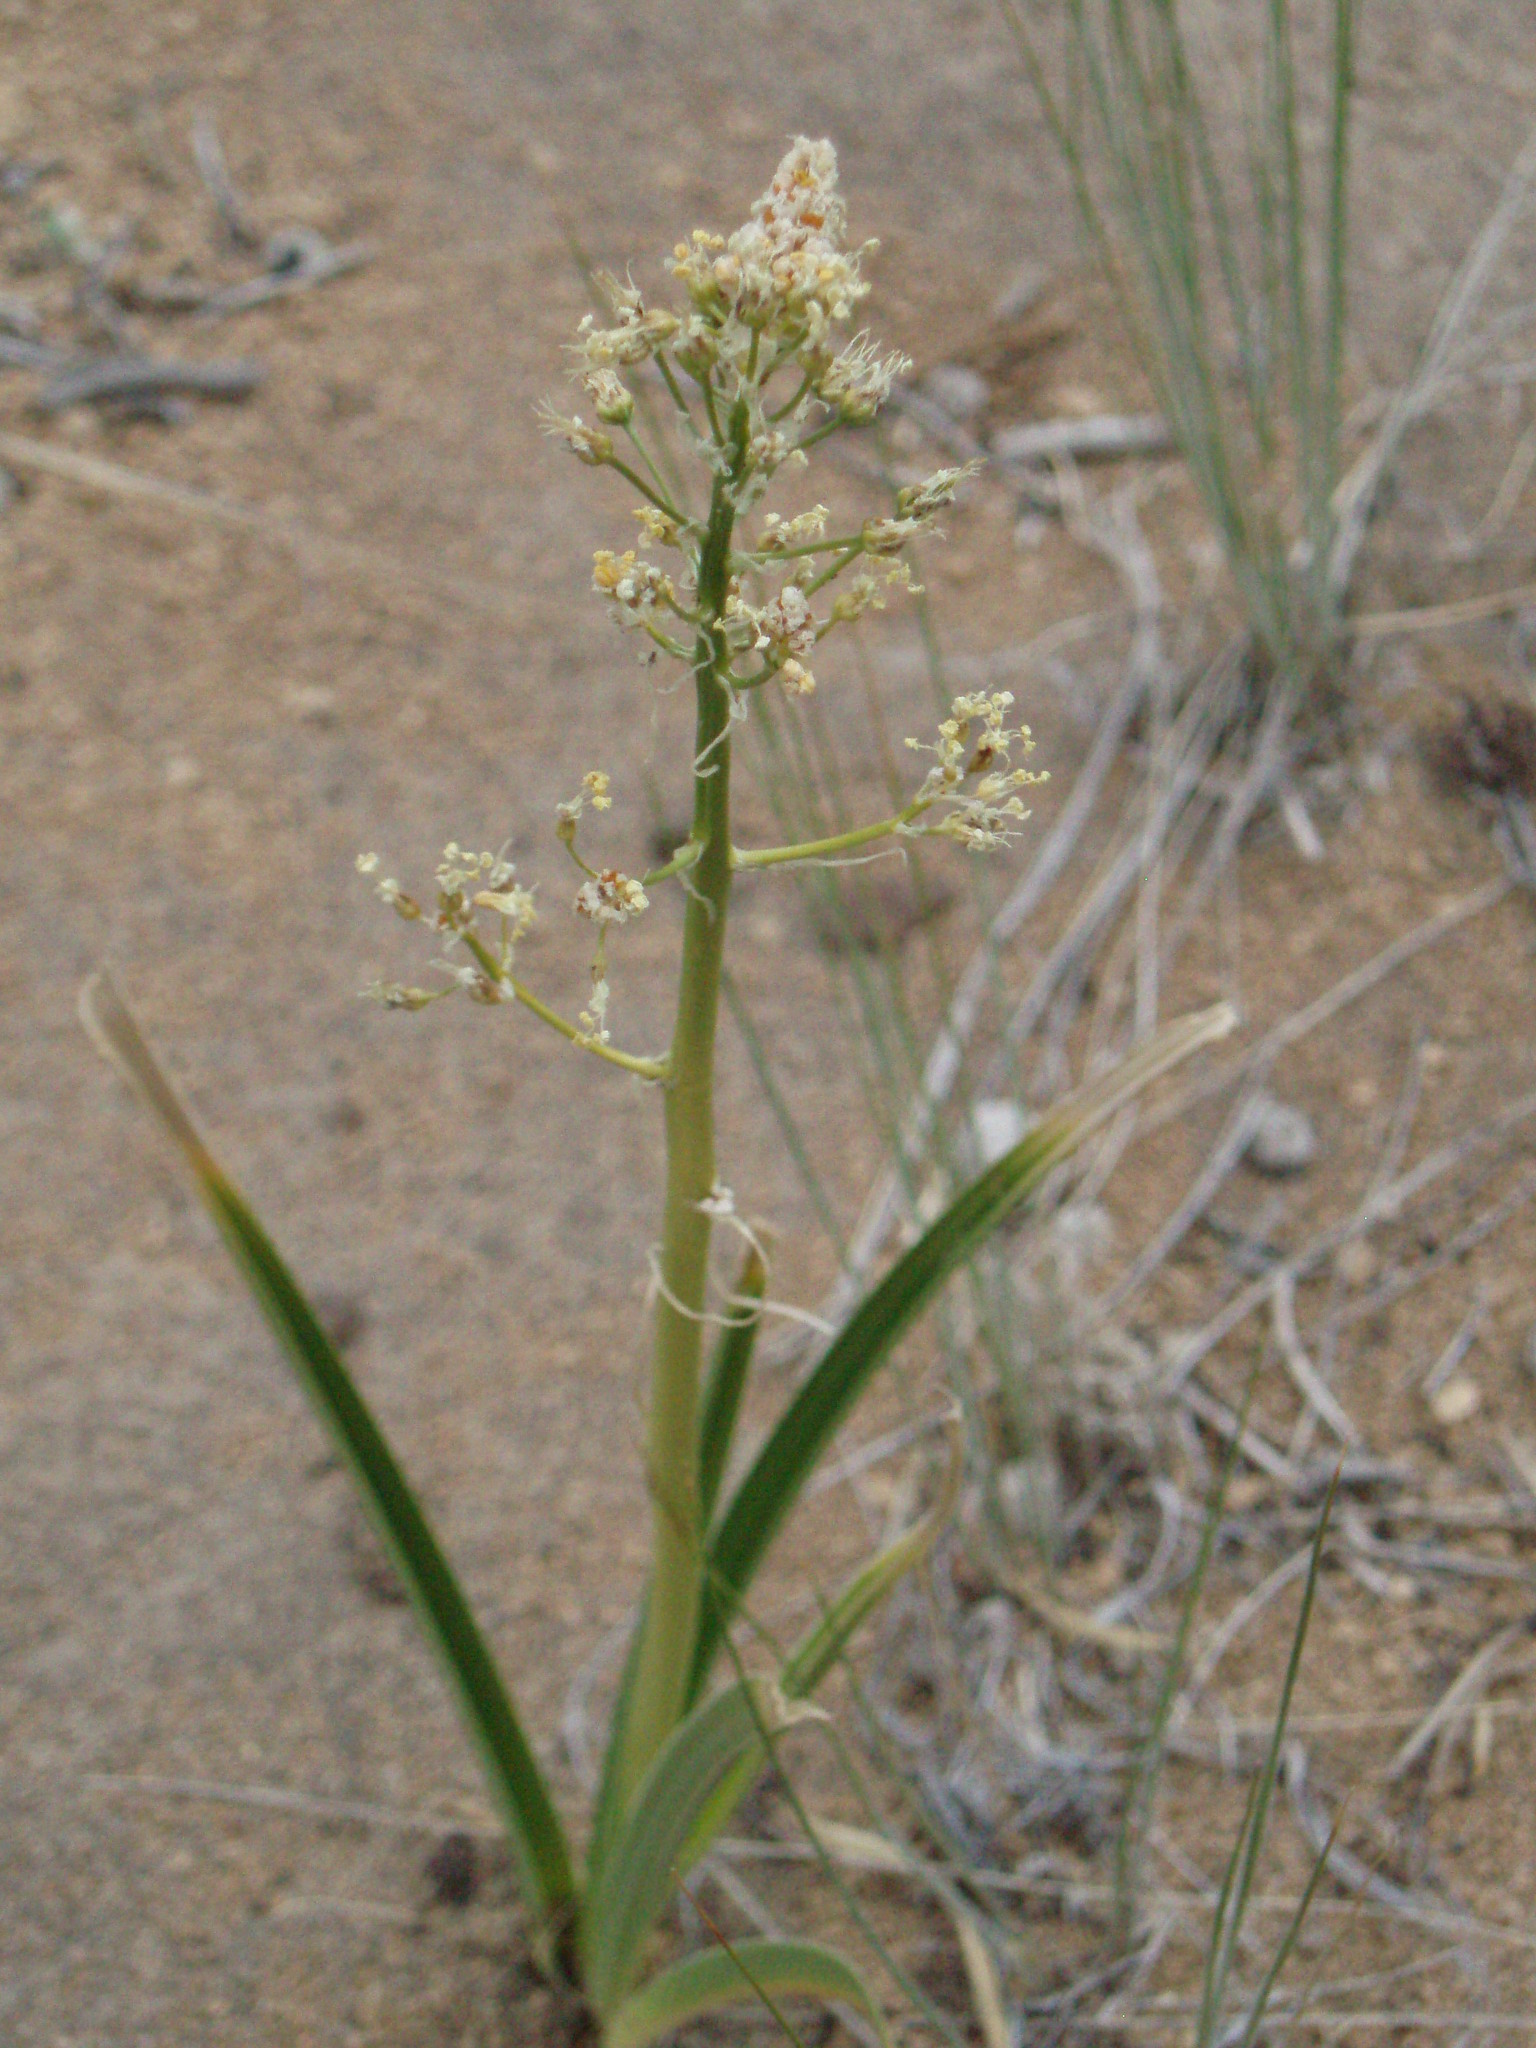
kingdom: Plantae
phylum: Tracheophyta
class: Liliopsida
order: Liliales
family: Melanthiaceae
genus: Toxicoscordion
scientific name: Toxicoscordion paniculatum
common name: Foothill death camas
